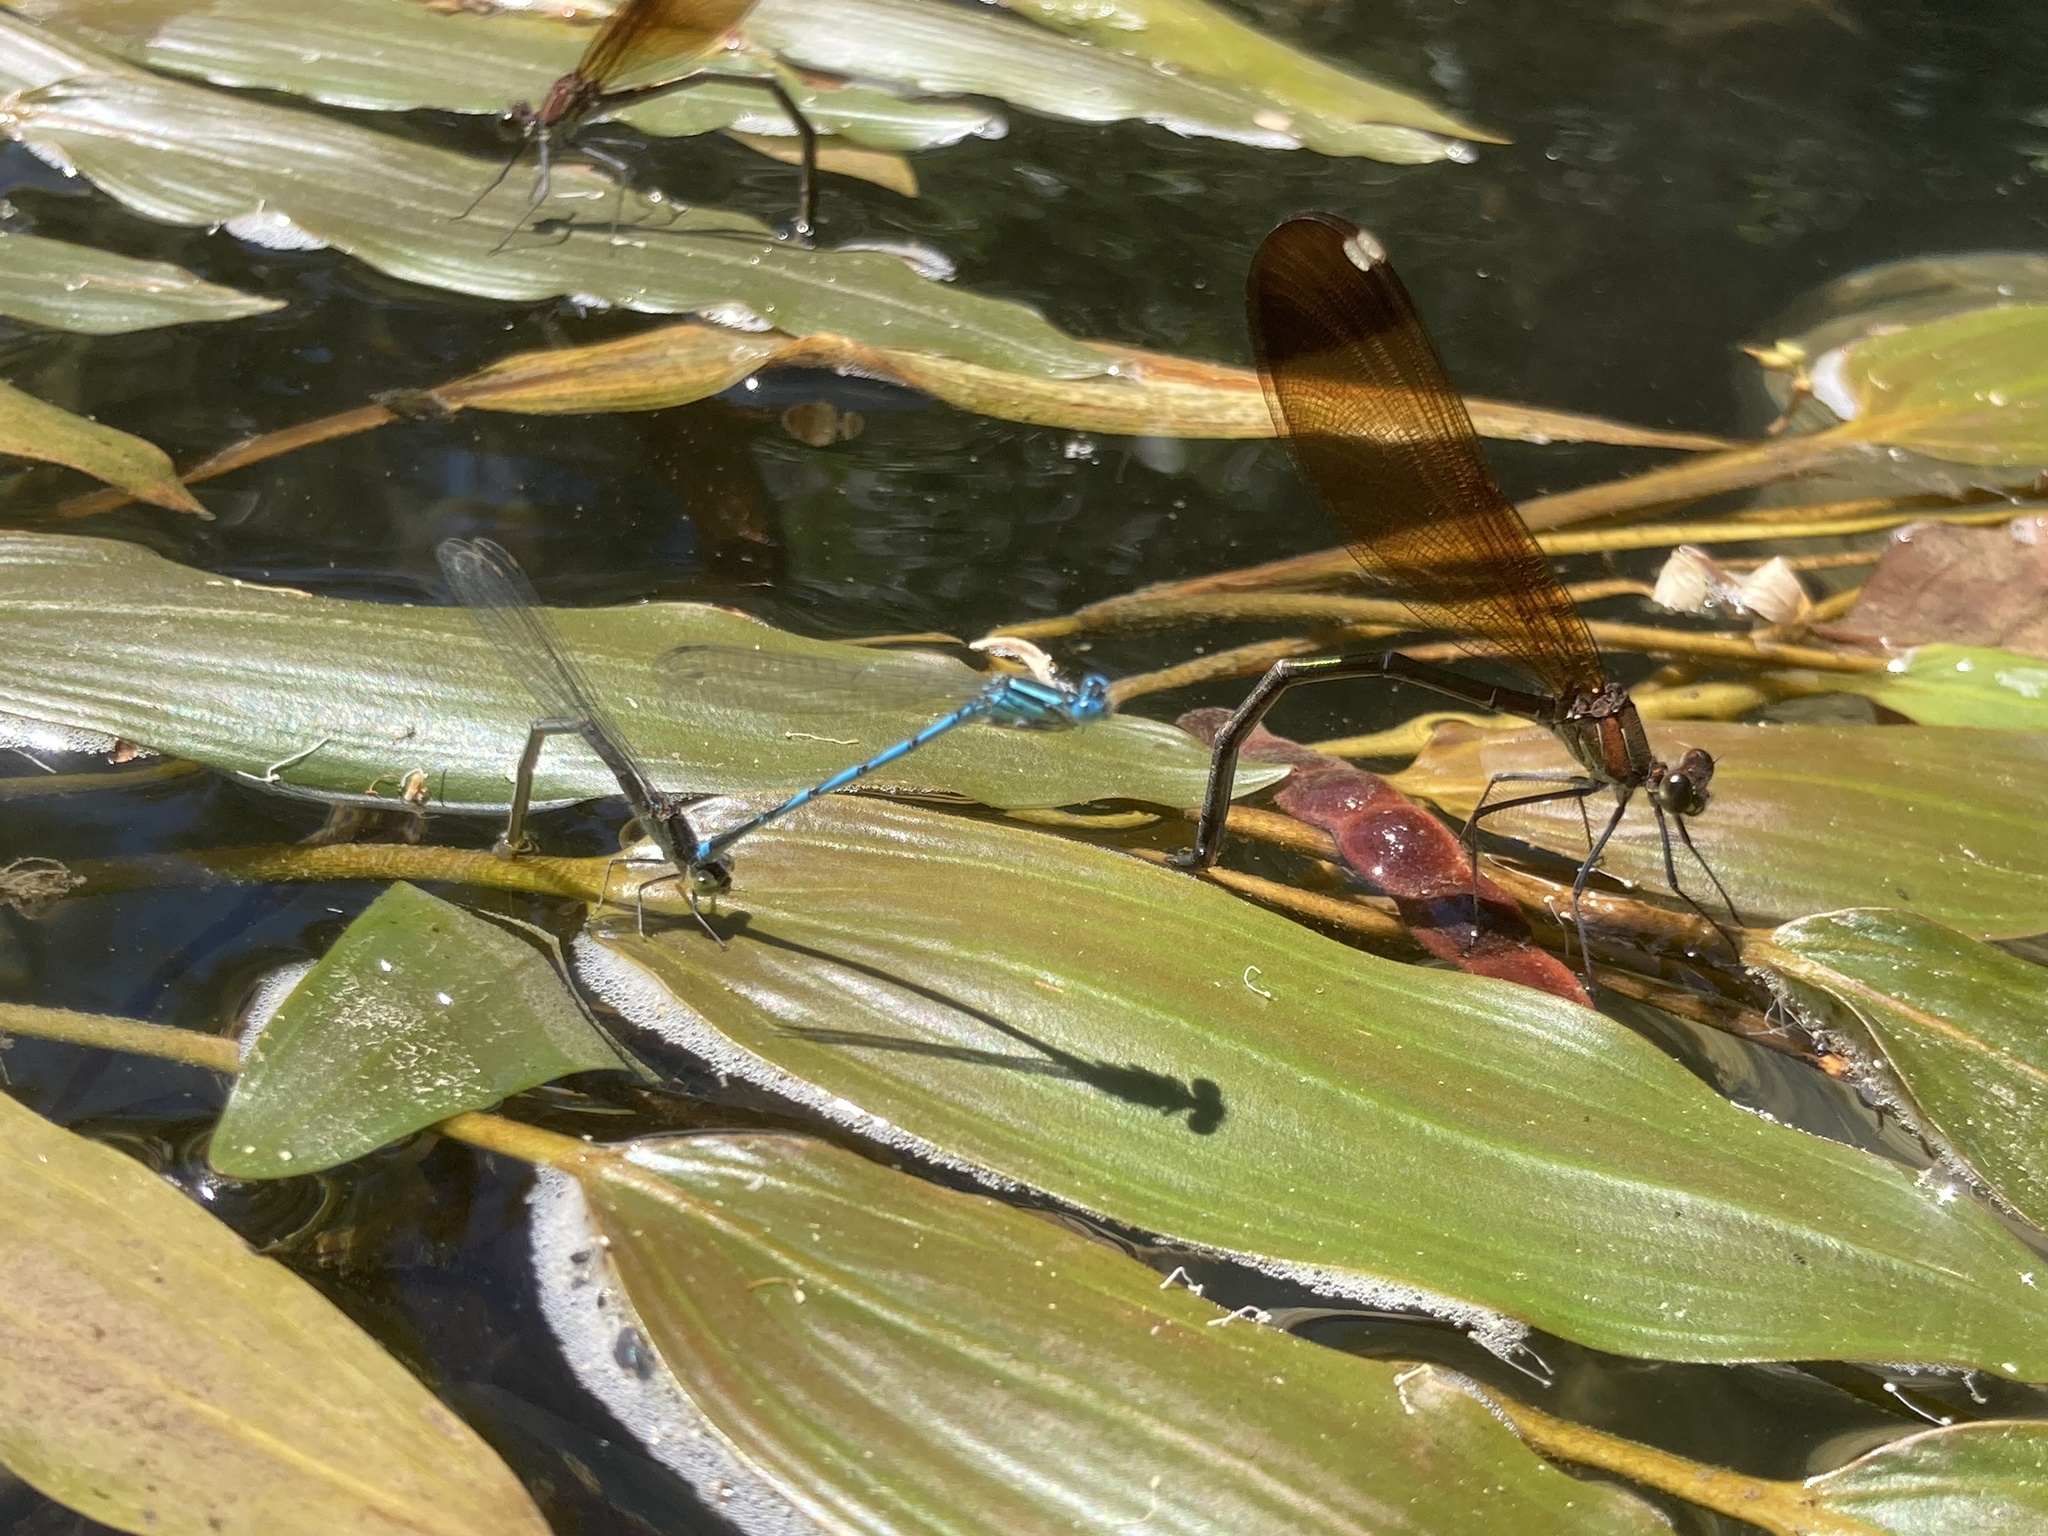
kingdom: Animalia
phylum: Arthropoda
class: Insecta
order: Odonata
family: Coenagrionidae
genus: Erythromma
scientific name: Erythromma lindenii
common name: Blue-eye
